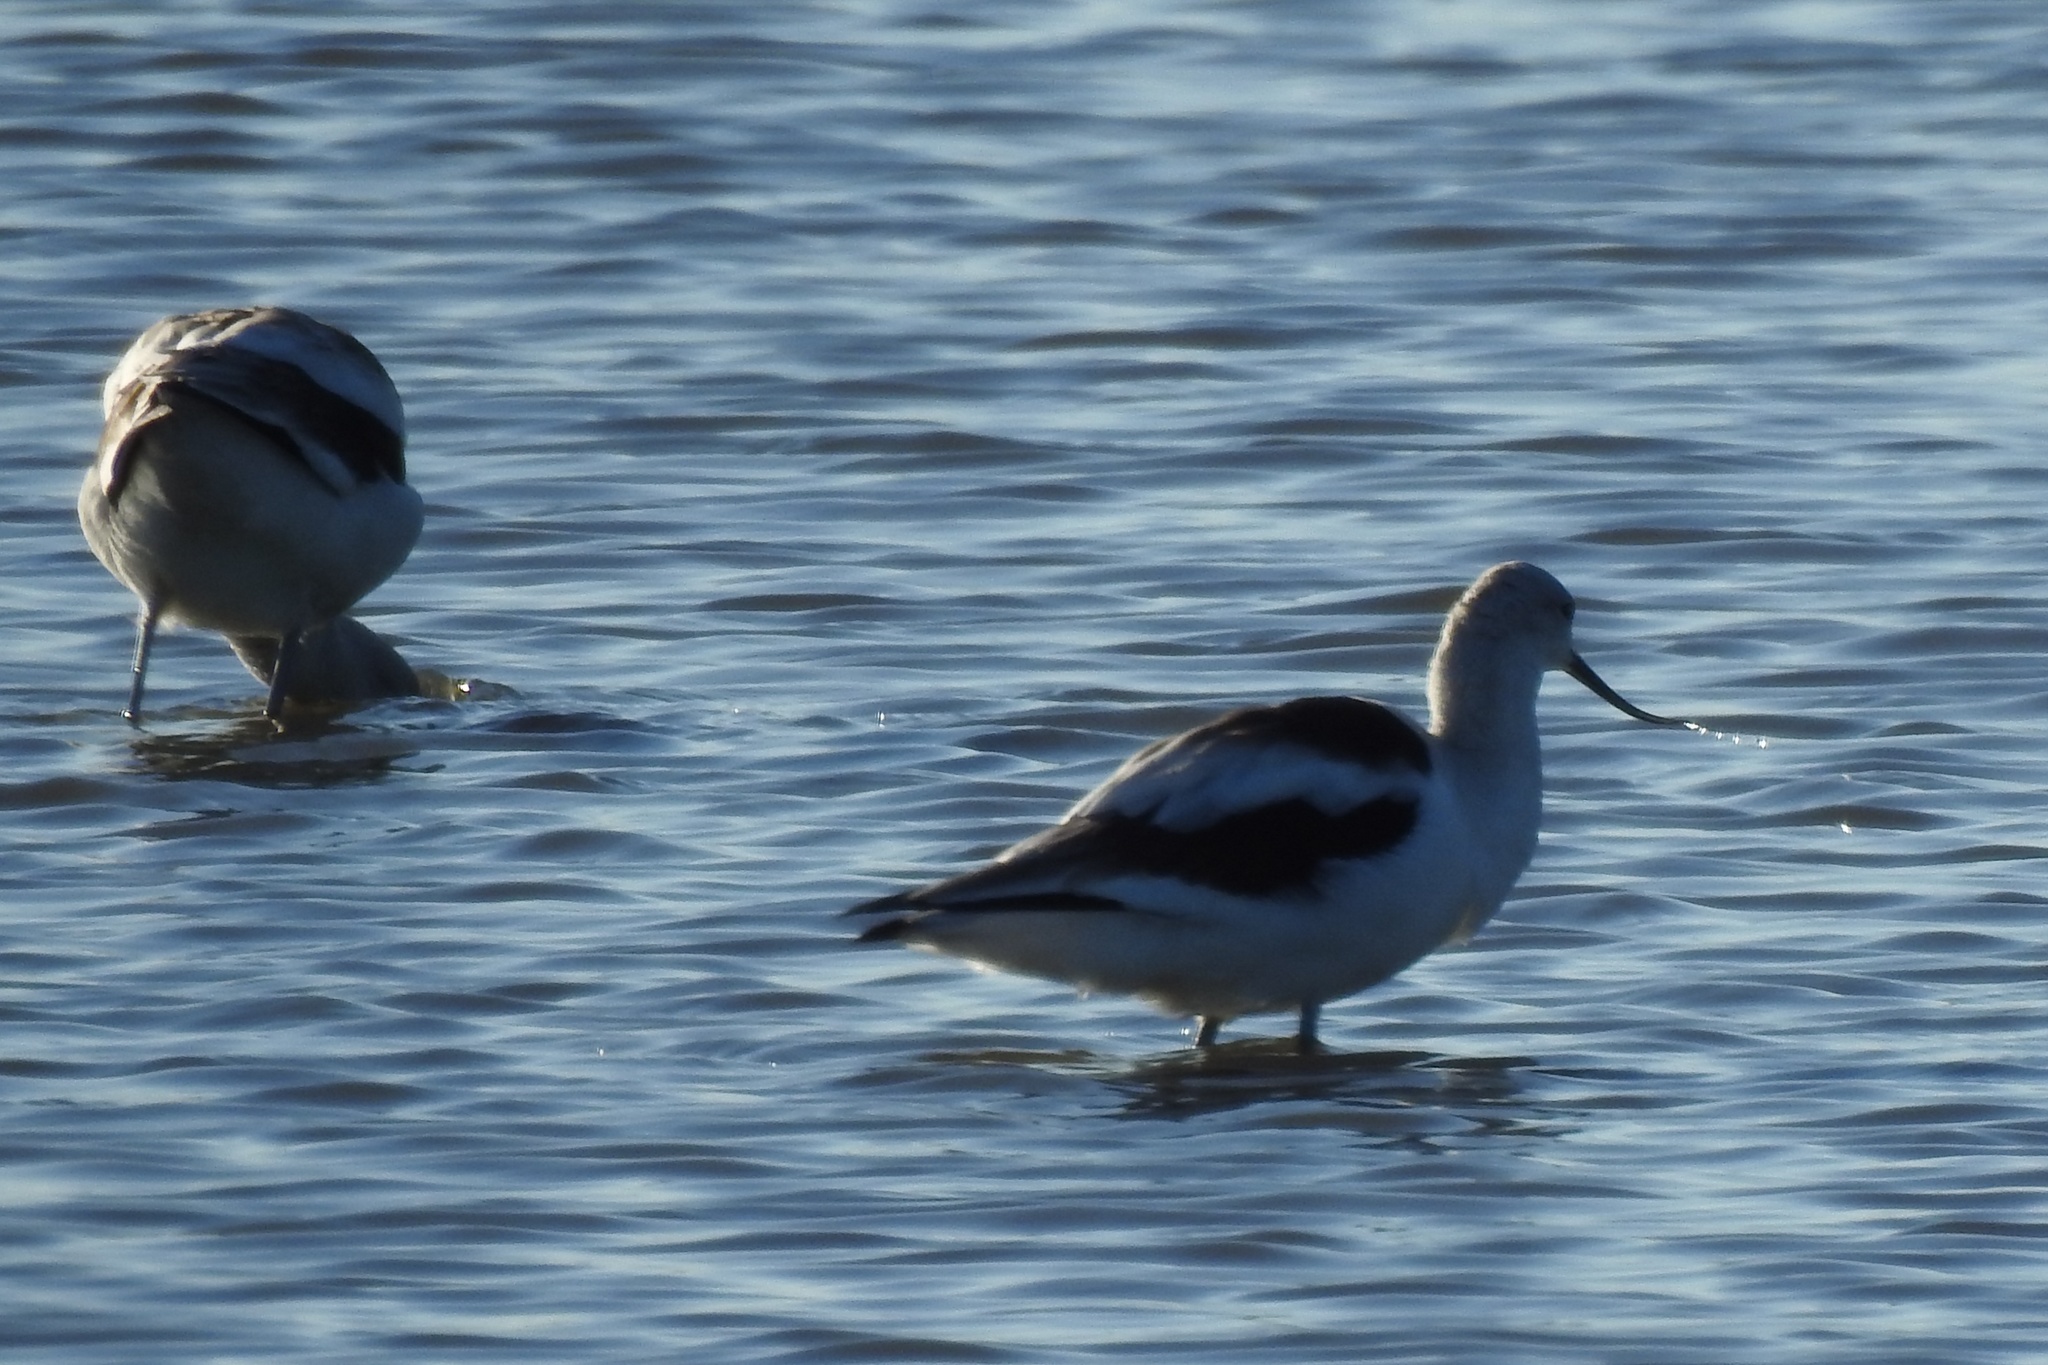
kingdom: Animalia
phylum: Chordata
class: Aves
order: Charadriiformes
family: Recurvirostridae
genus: Recurvirostra
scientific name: Recurvirostra americana
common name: American avocet
